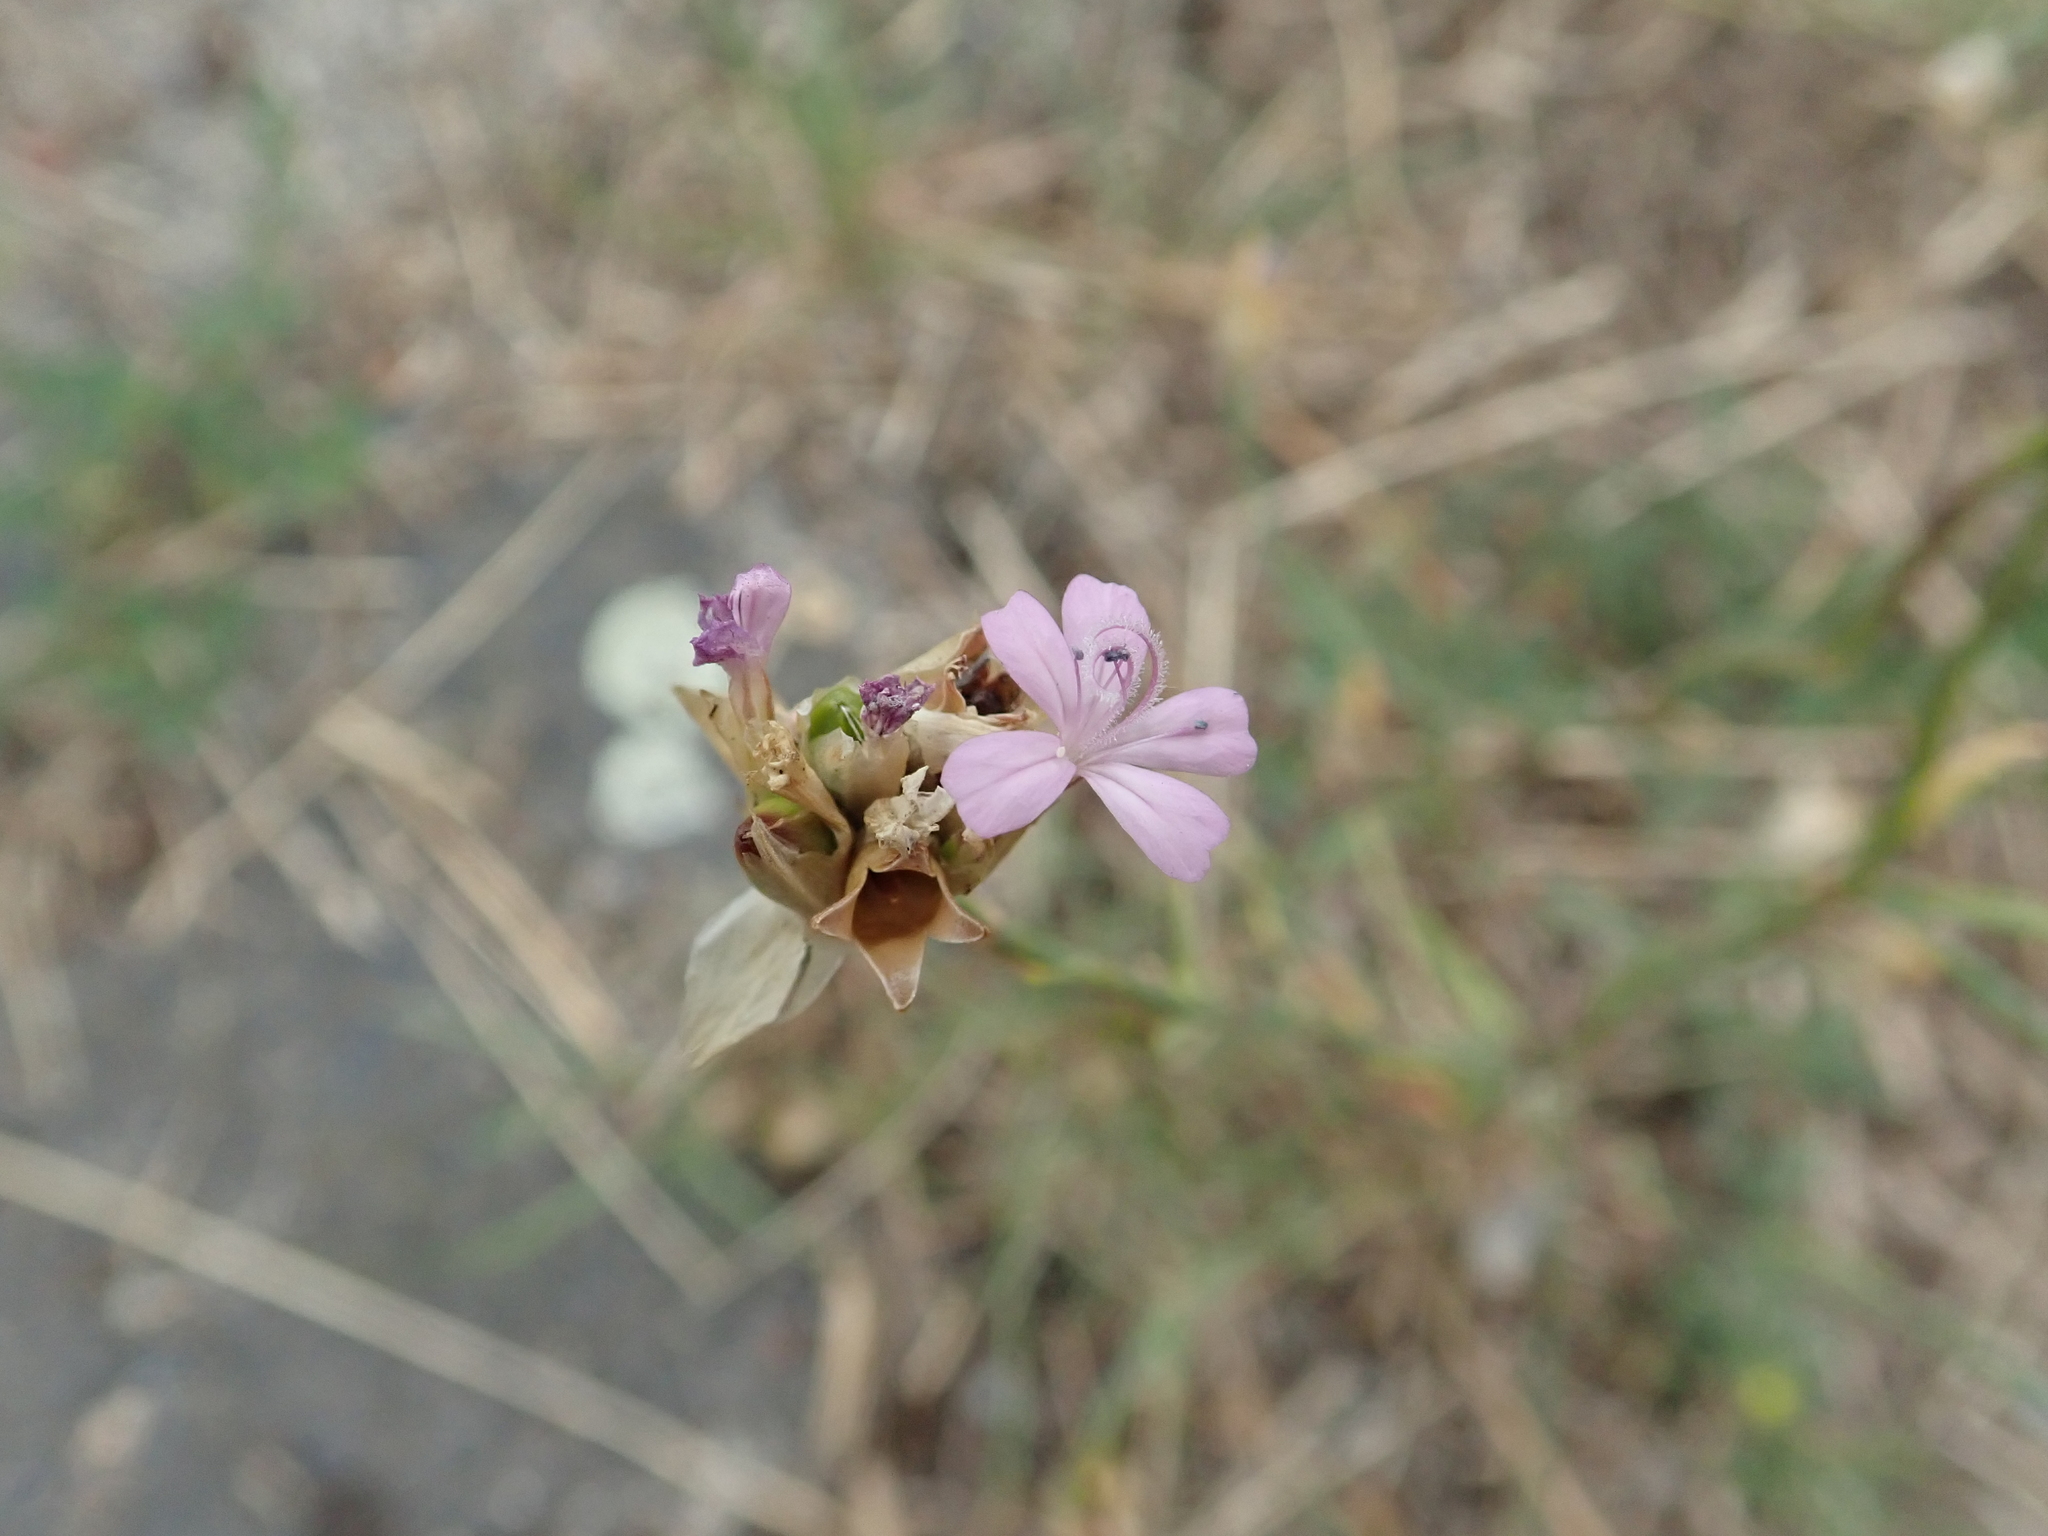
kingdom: Plantae
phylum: Tracheophyta
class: Magnoliopsida
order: Caryophyllales
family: Caryophyllaceae
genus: Petrorhagia
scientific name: Petrorhagia prolifera
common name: Proliferous pink
